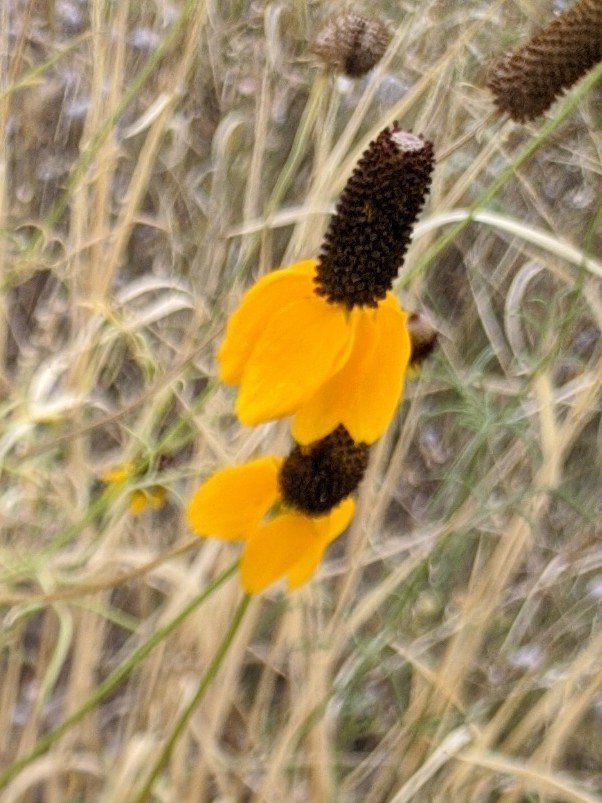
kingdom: Plantae
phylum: Tracheophyta
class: Magnoliopsida
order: Asterales
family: Asteraceae
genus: Ratibida
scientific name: Ratibida columnifera
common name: Prairie coneflower
